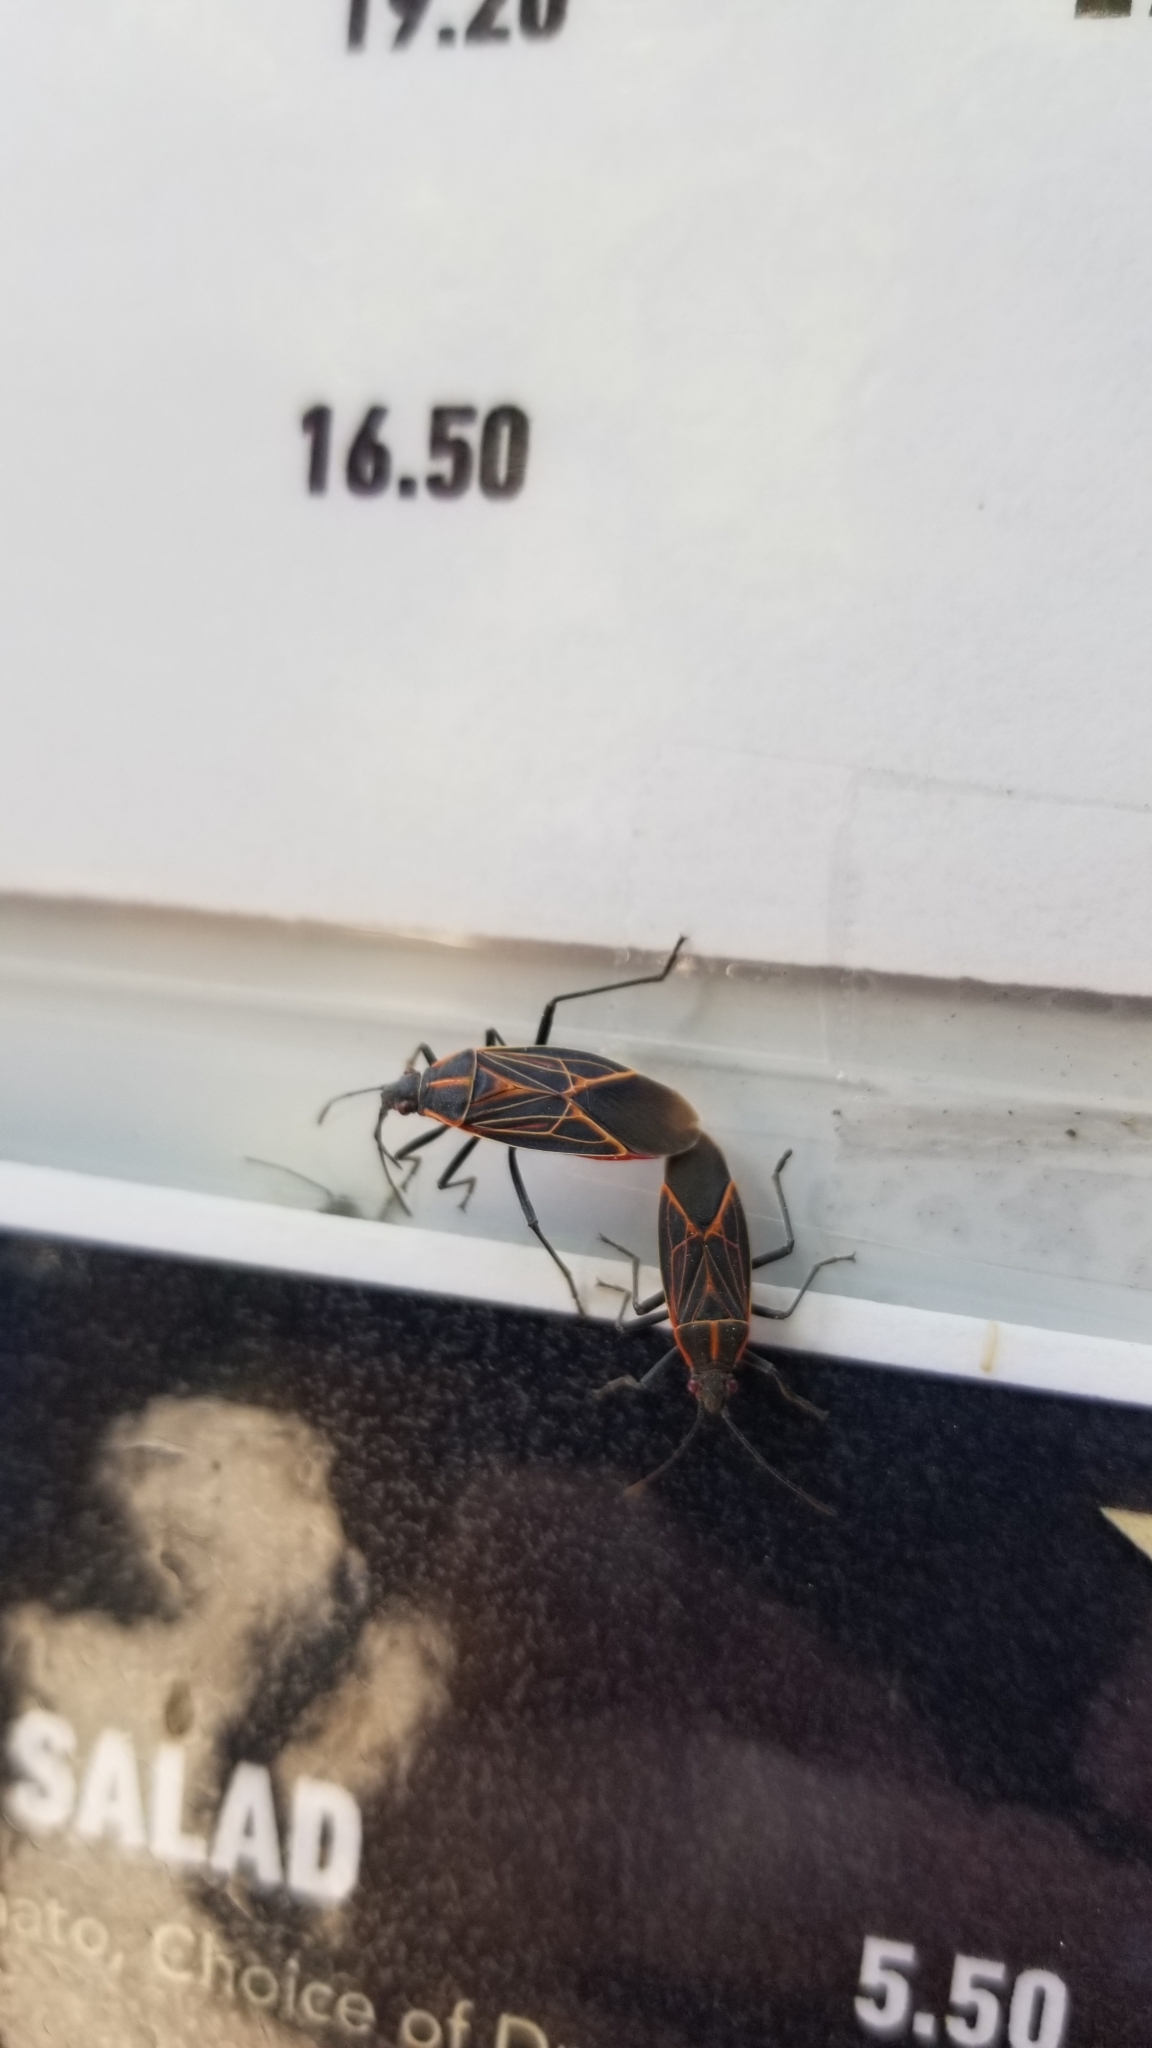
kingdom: Animalia
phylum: Arthropoda
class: Insecta
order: Hemiptera
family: Rhopalidae
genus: Boisea
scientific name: Boisea rubrolineata
